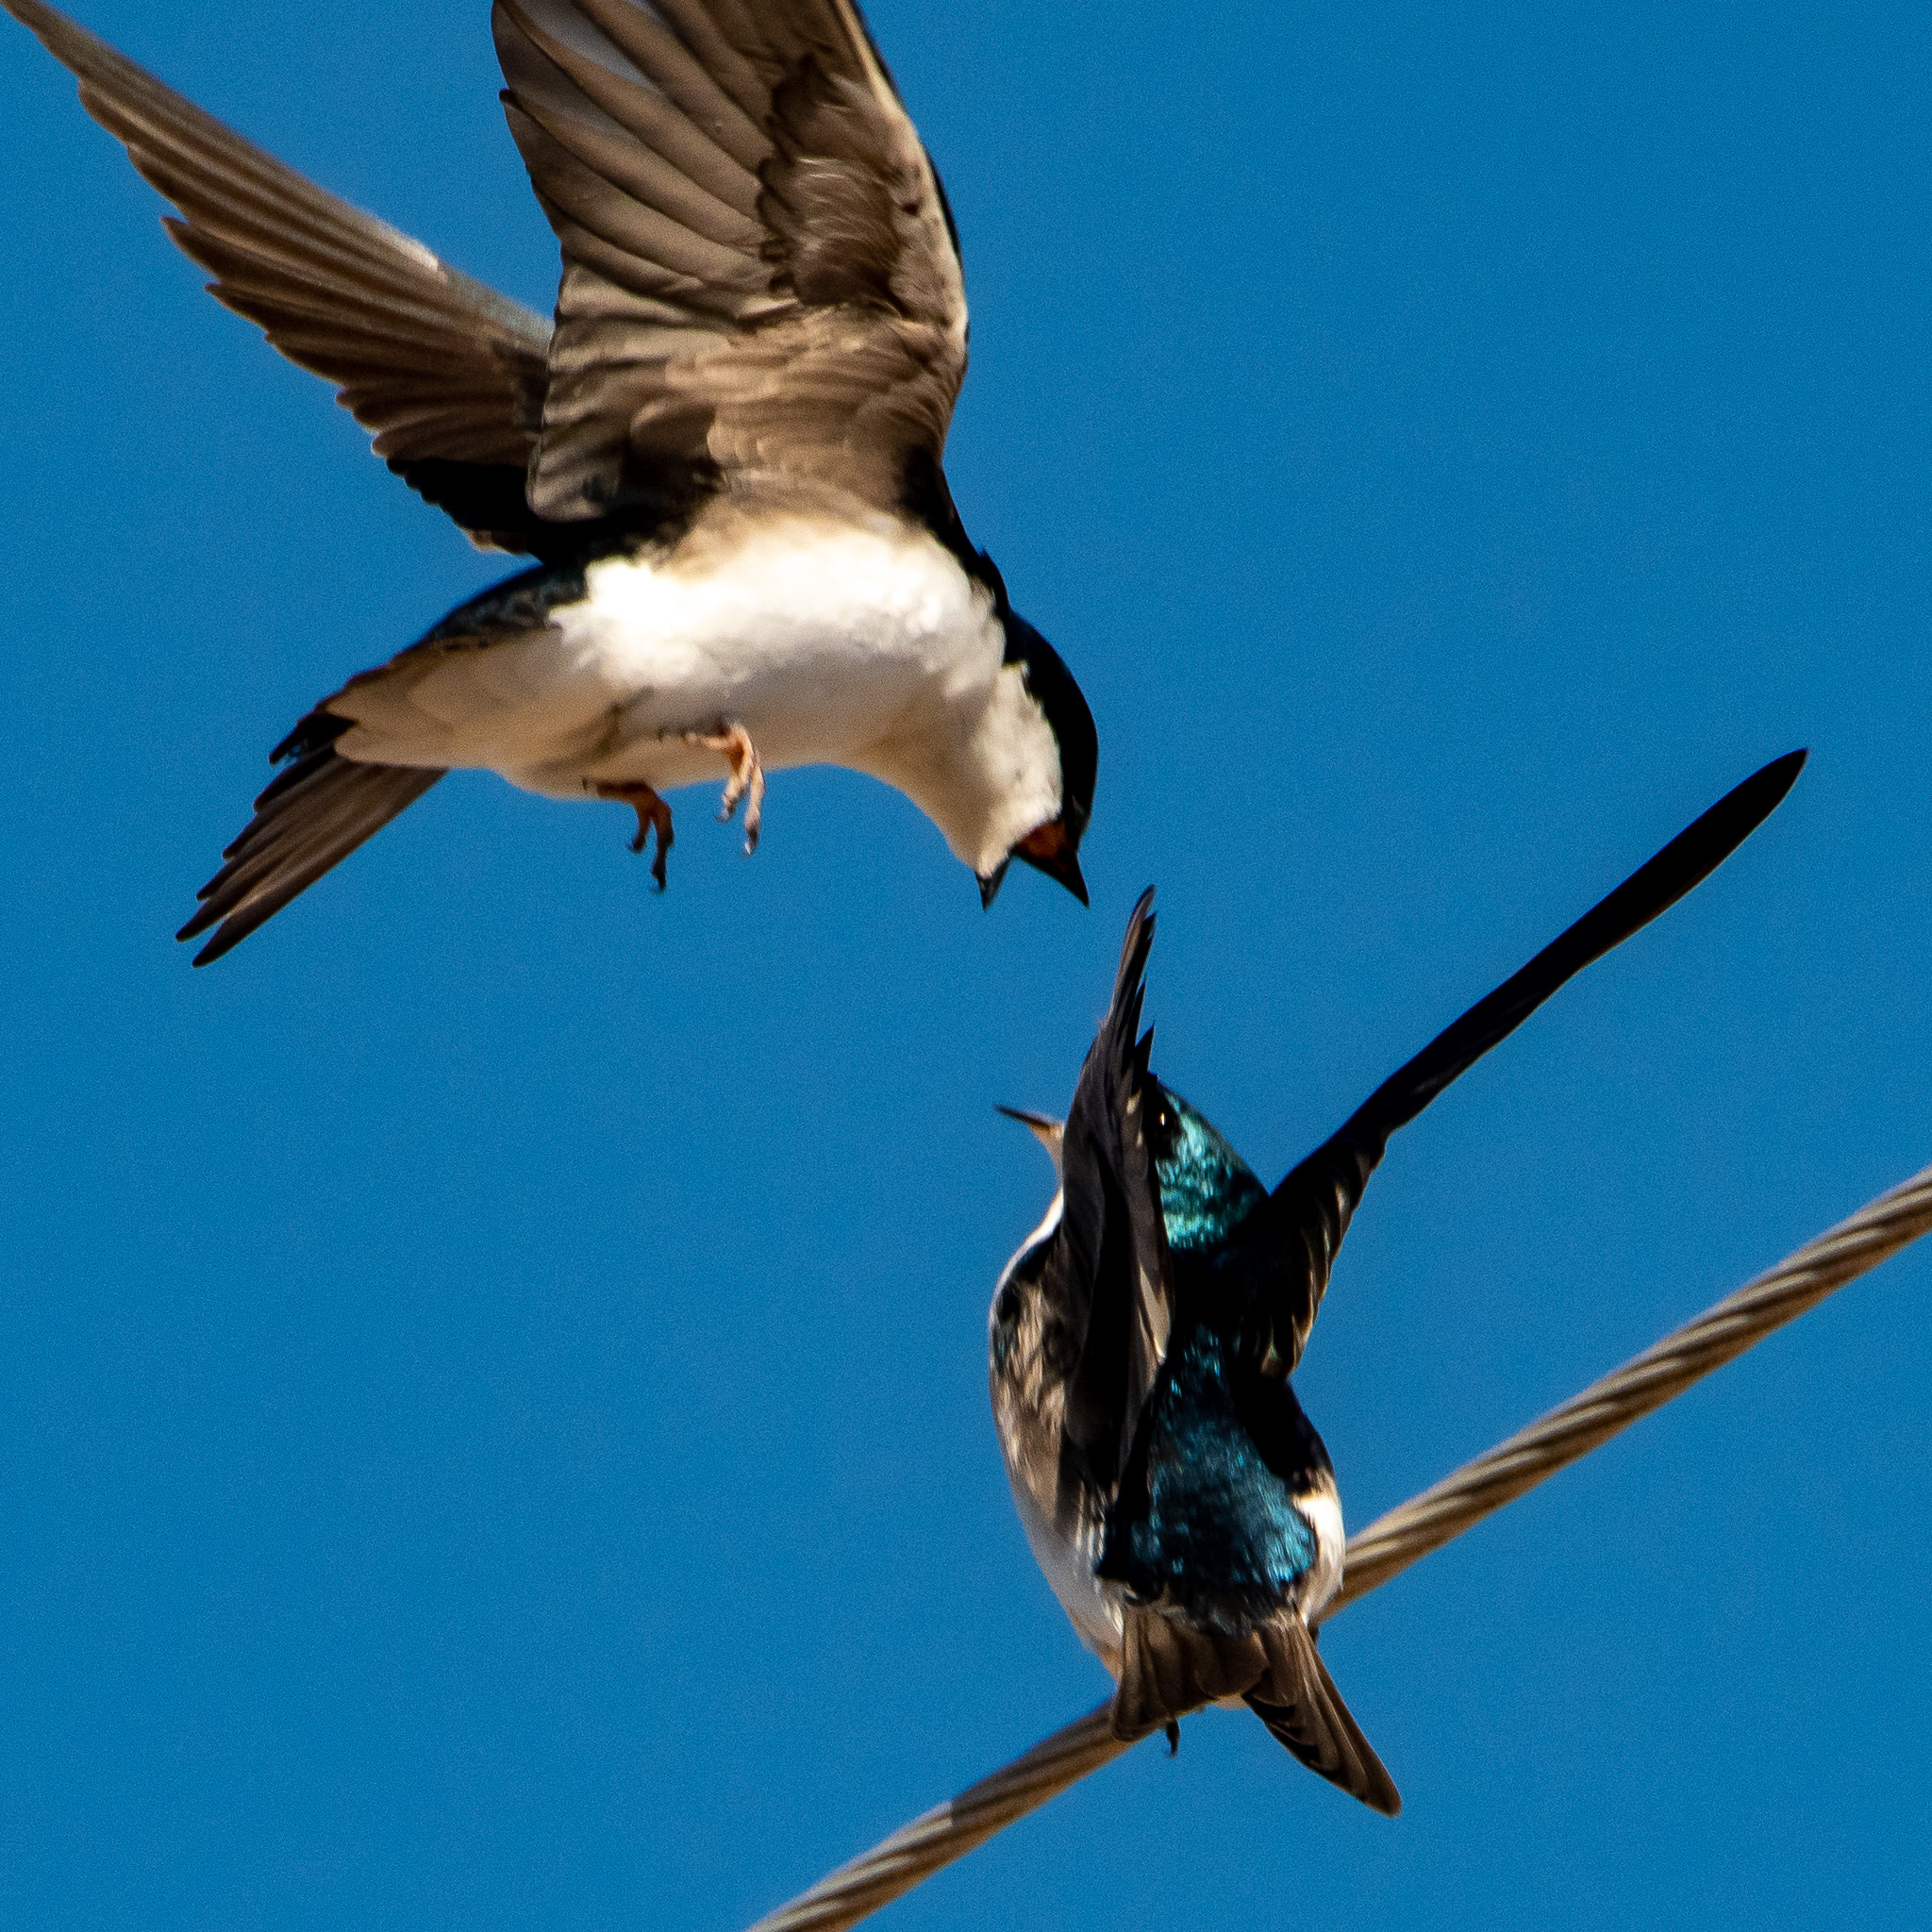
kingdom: Animalia
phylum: Chordata
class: Aves
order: Passeriformes
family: Hirundinidae
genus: Tachycineta
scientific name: Tachycineta bicolor
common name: Tree swallow
